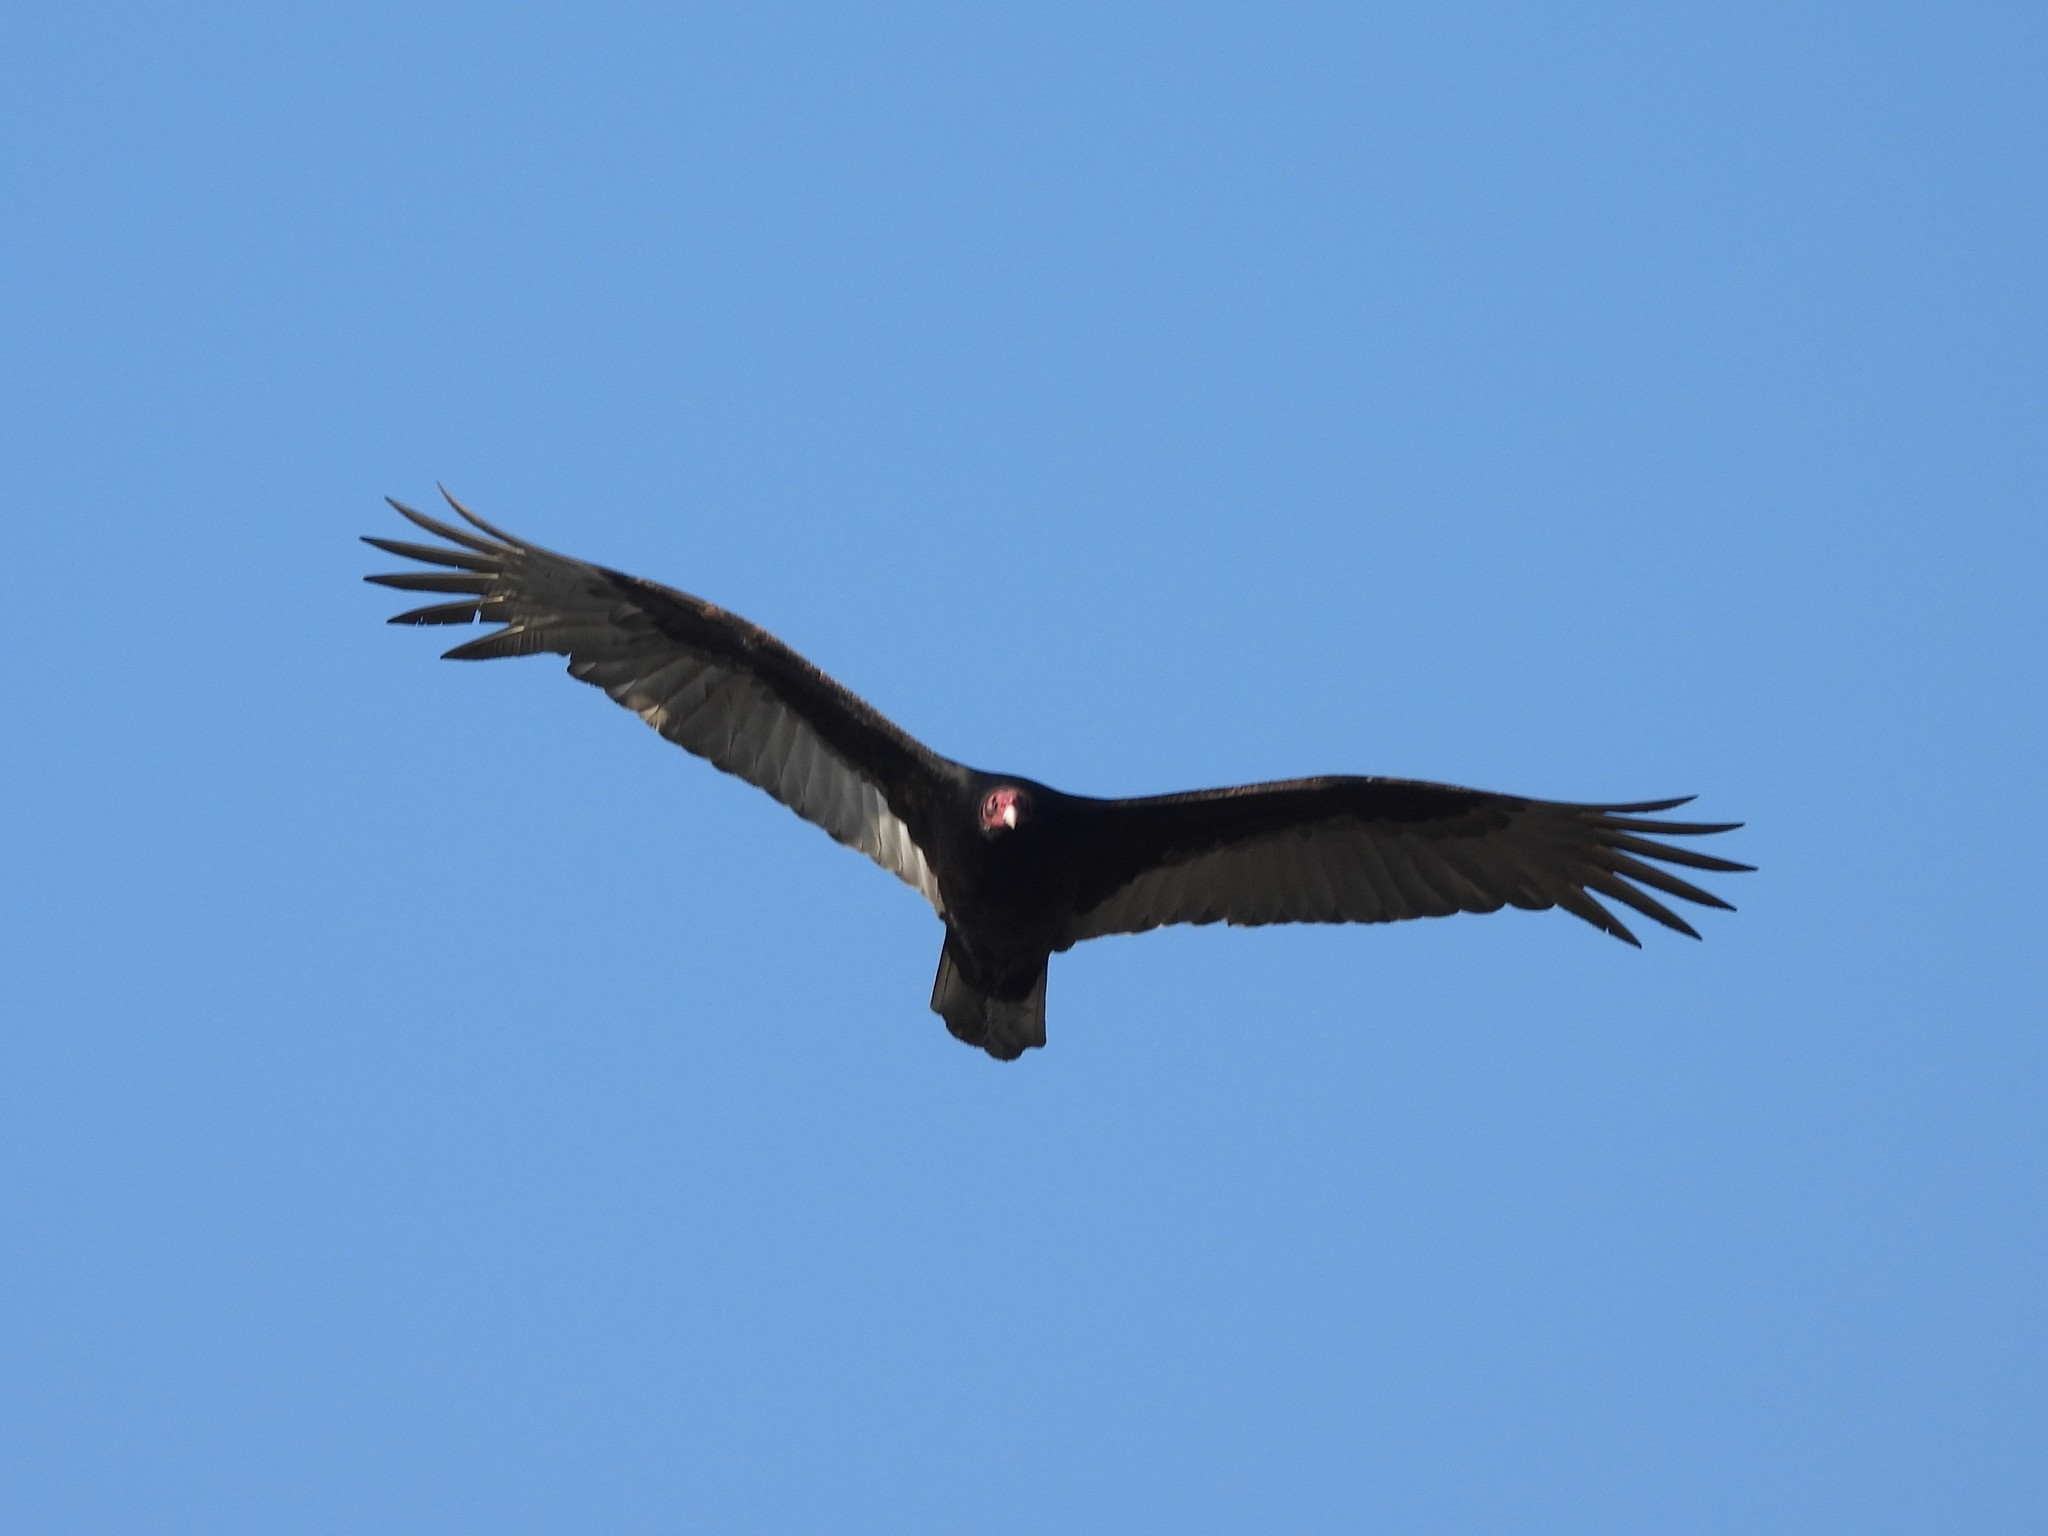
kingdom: Animalia
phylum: Chordata
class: Aves
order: Accipitriformes
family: Cathartidae
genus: Cathartes
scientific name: Cathartes aura
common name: Turkey vulture
